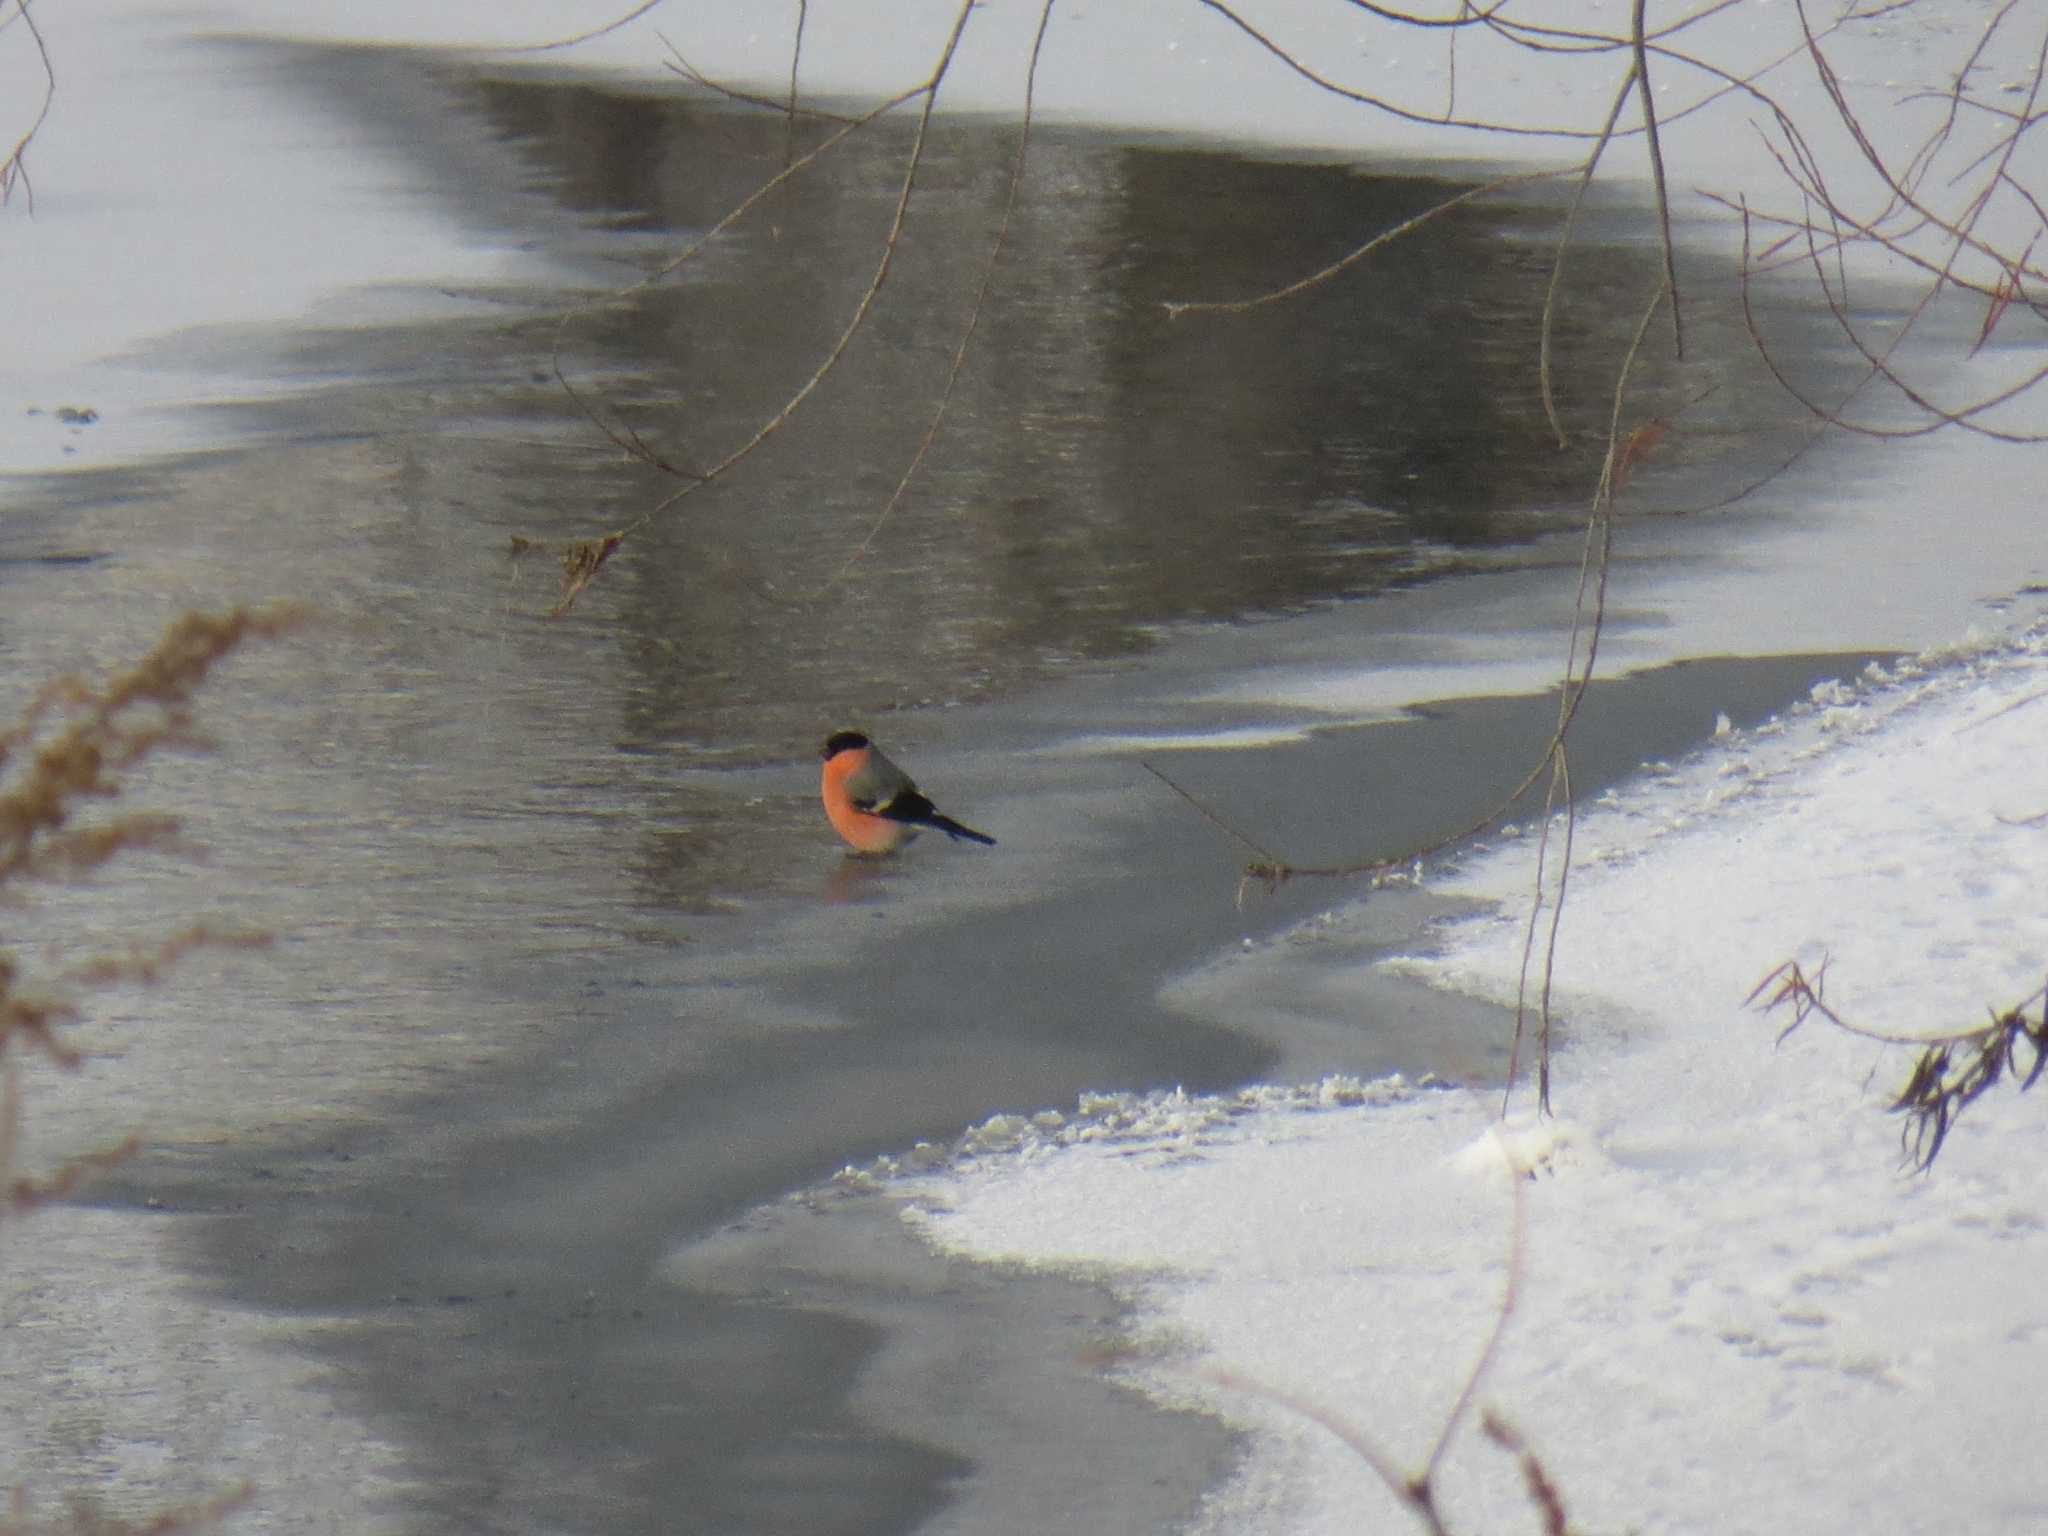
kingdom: Animalia
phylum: Chordata
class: Aves
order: Passeriformes
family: Fringillidae
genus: Pyrrhula
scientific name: Pyrrhula pyrrhula
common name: Eurasian bullfinch
